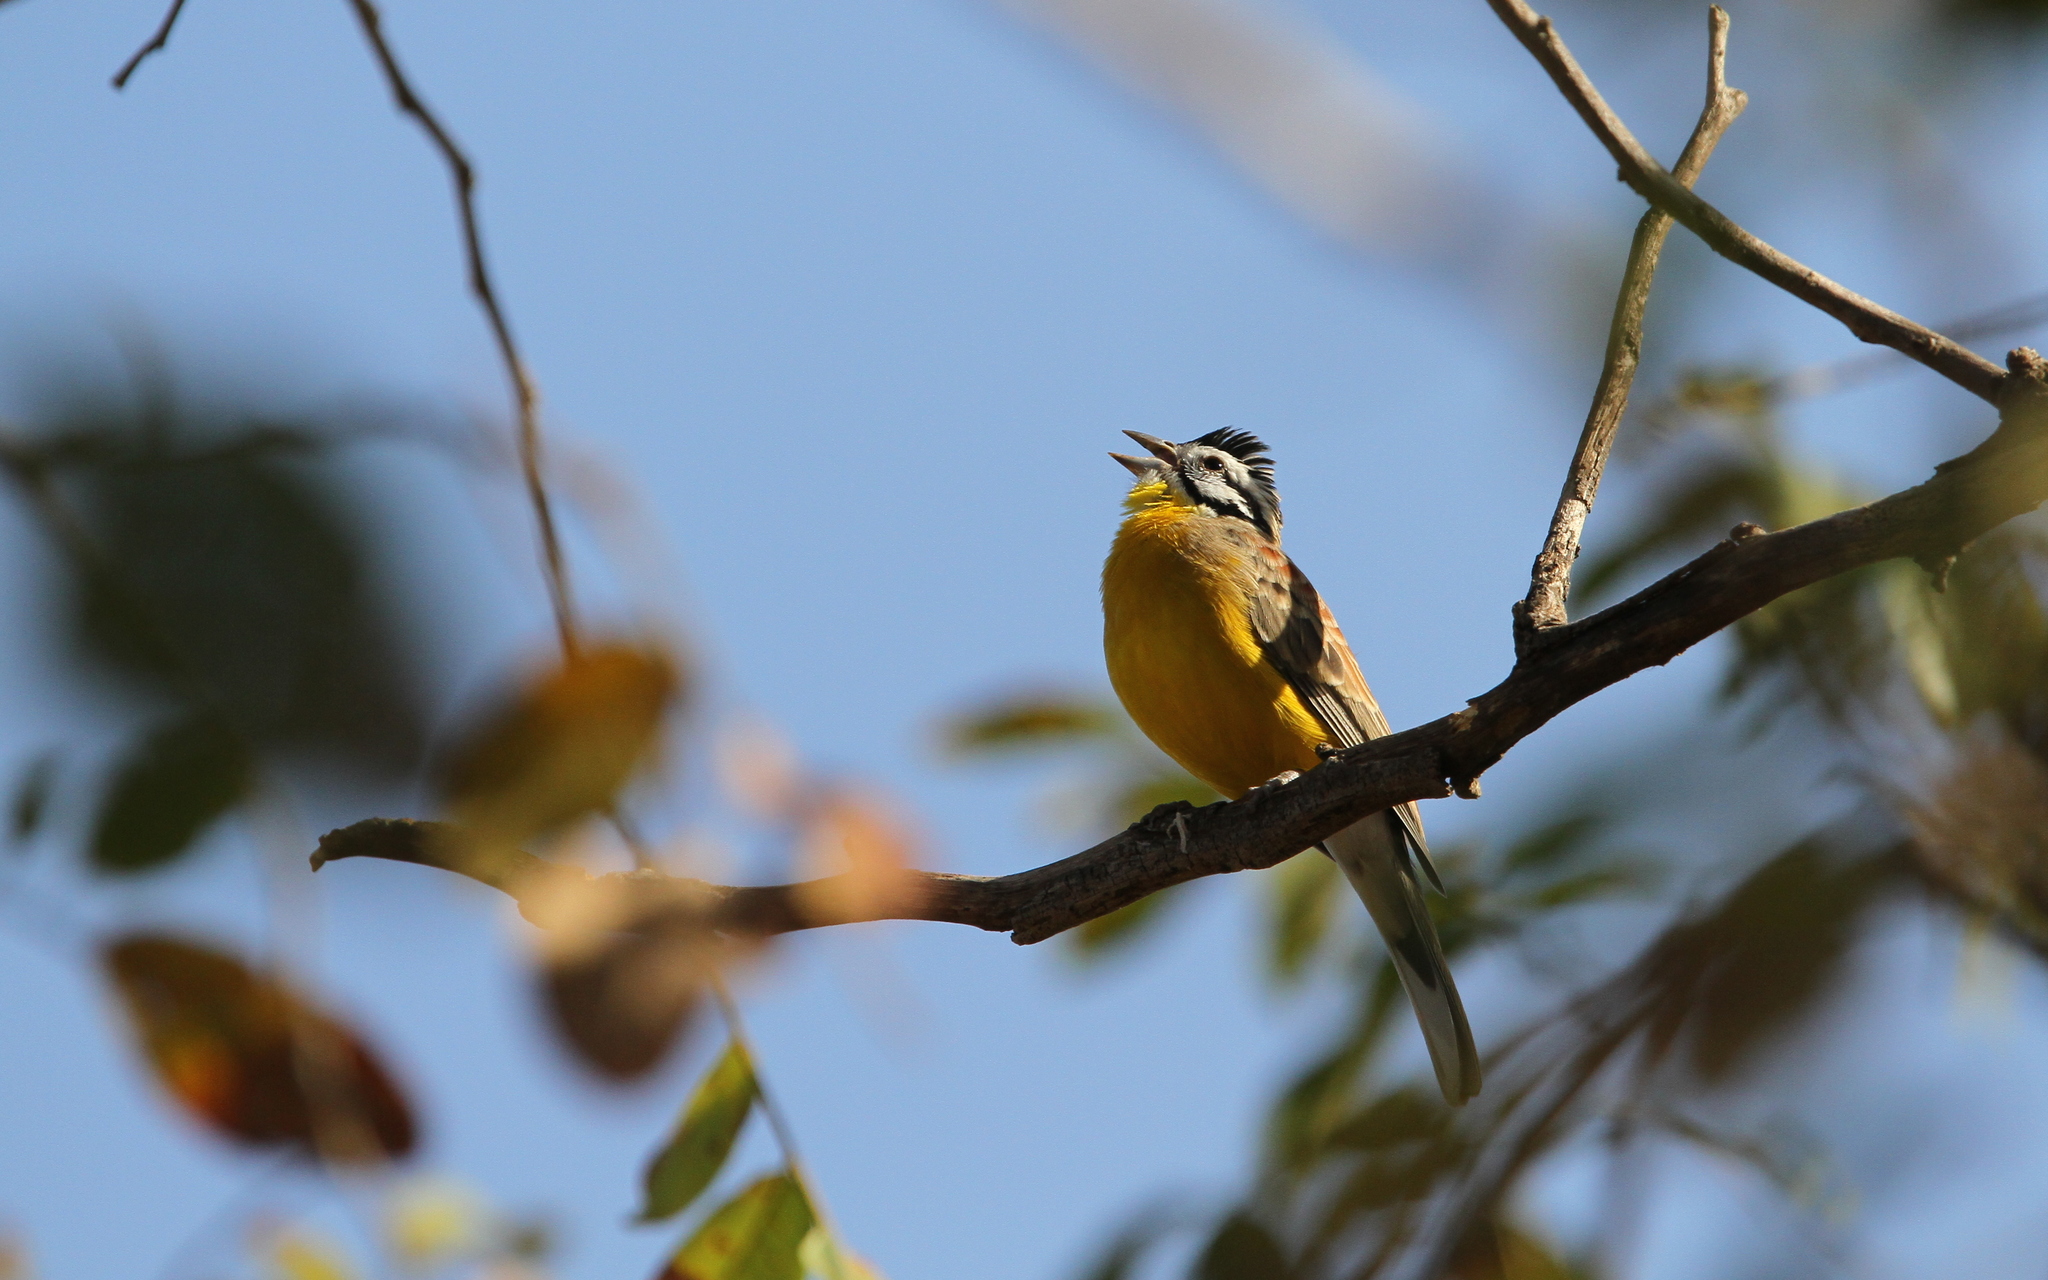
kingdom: Animalia
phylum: Chordata
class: Aves
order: Passeriformes
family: Emberizidae
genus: Emberiza
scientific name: Emberiza affinis
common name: Brown-rumped bunting
